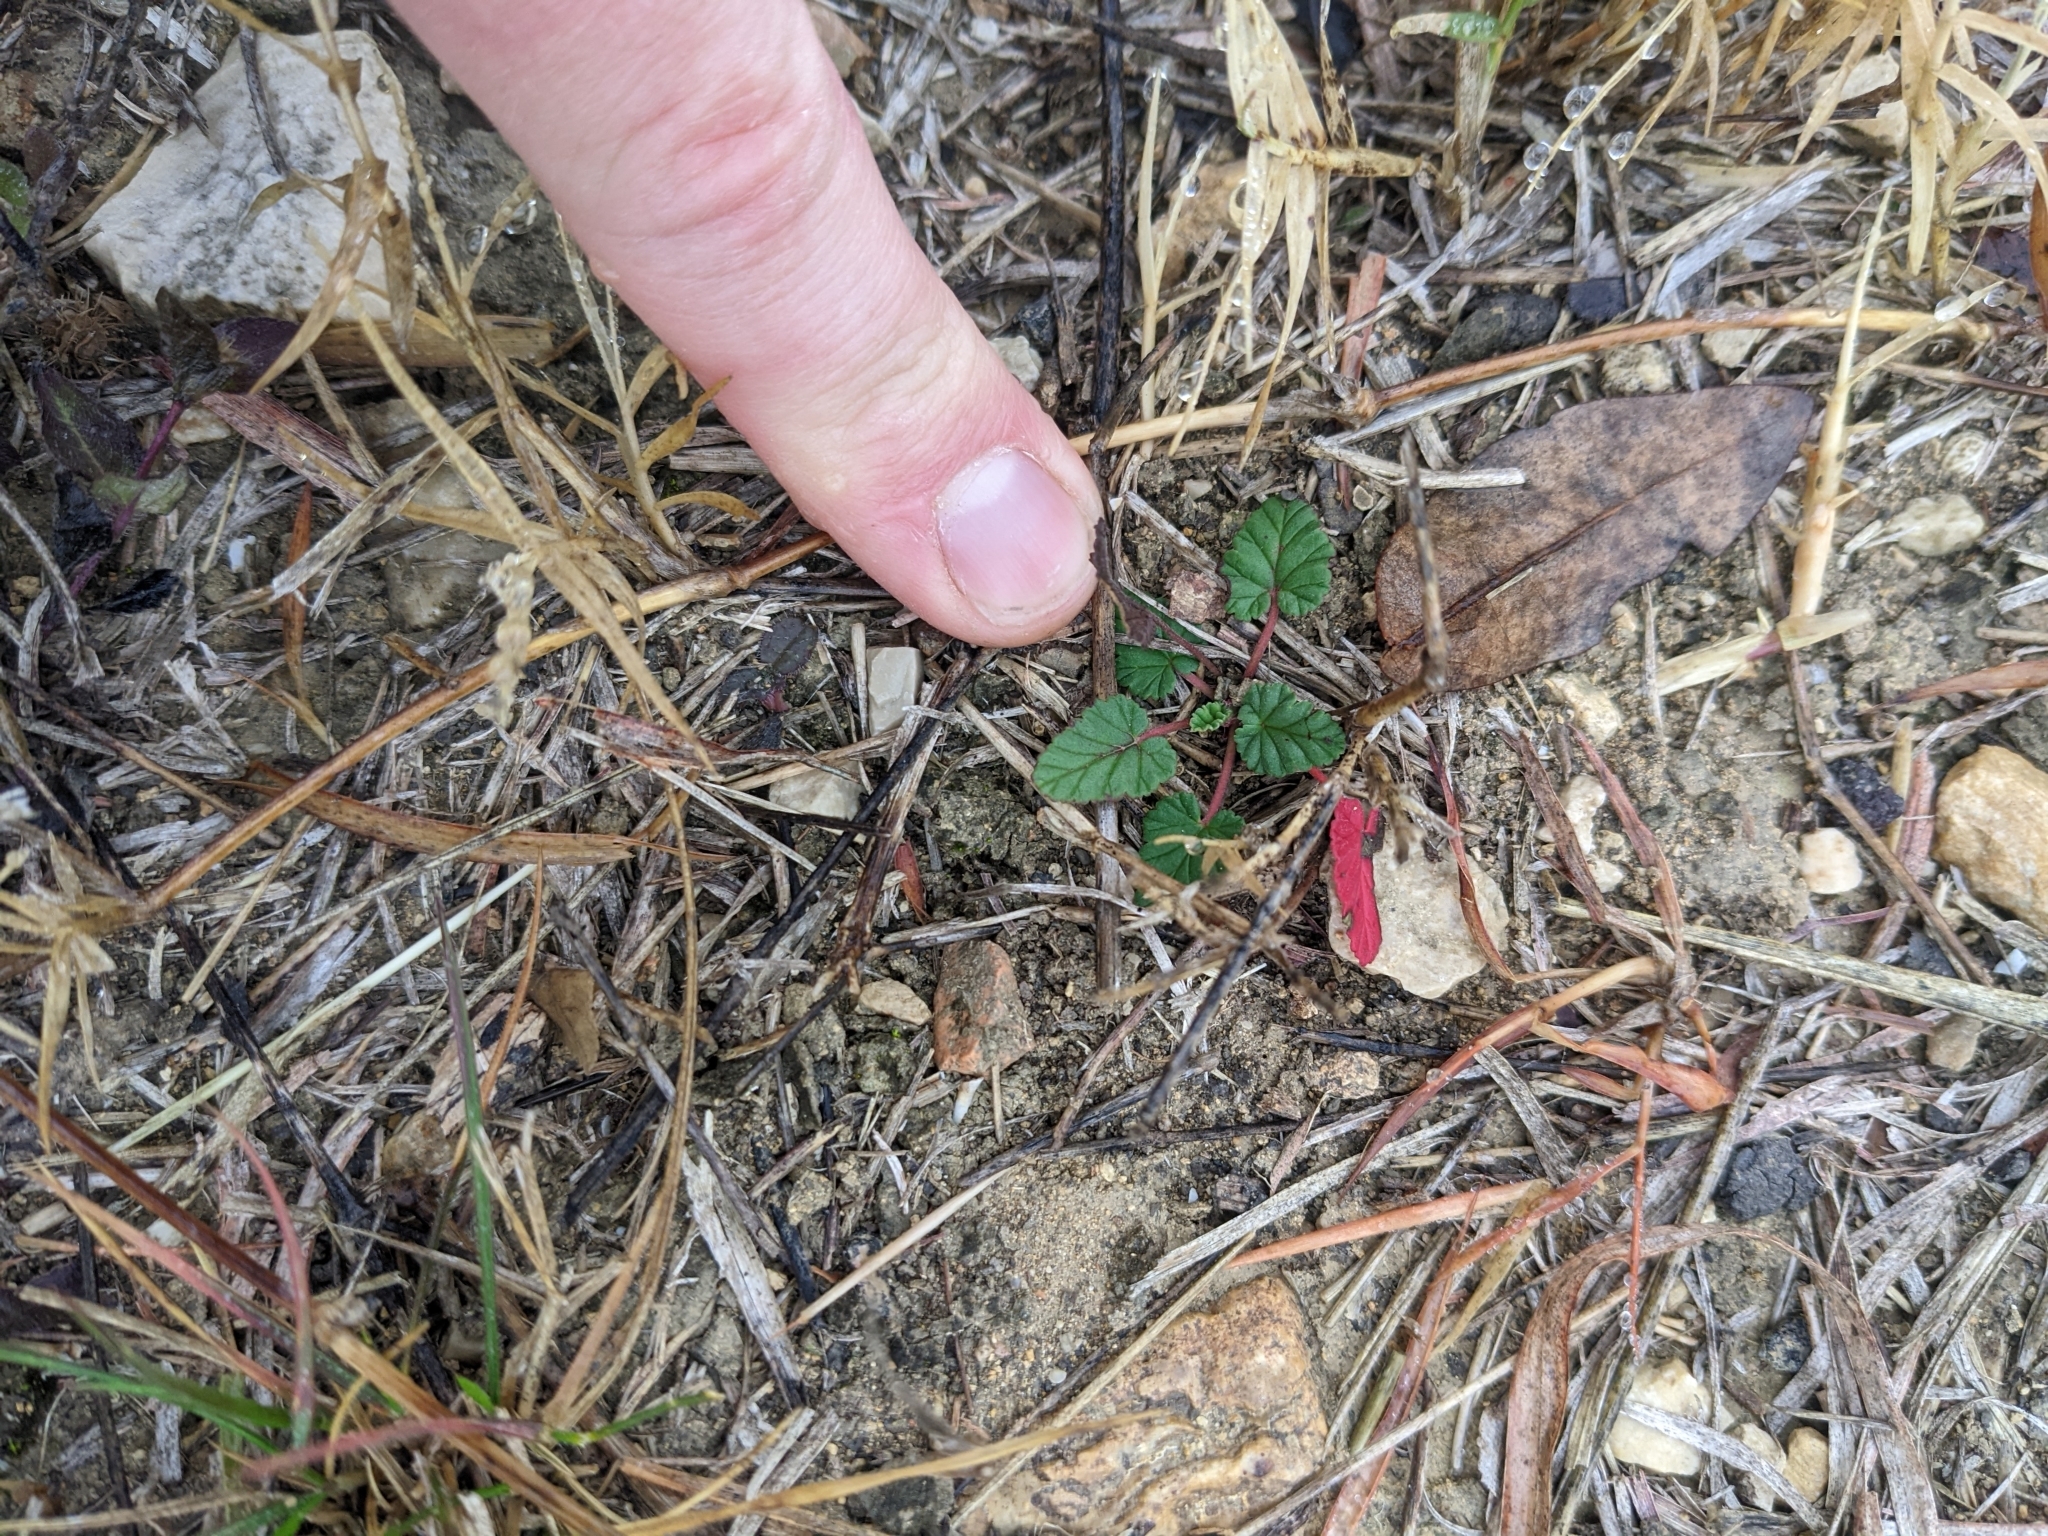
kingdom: Plantae
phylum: Tracheophyta
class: Magnoliopsida
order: Geraniales
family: Geraniaceae
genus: Erodium
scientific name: Erodium texanum
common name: Texas stork's-bill
